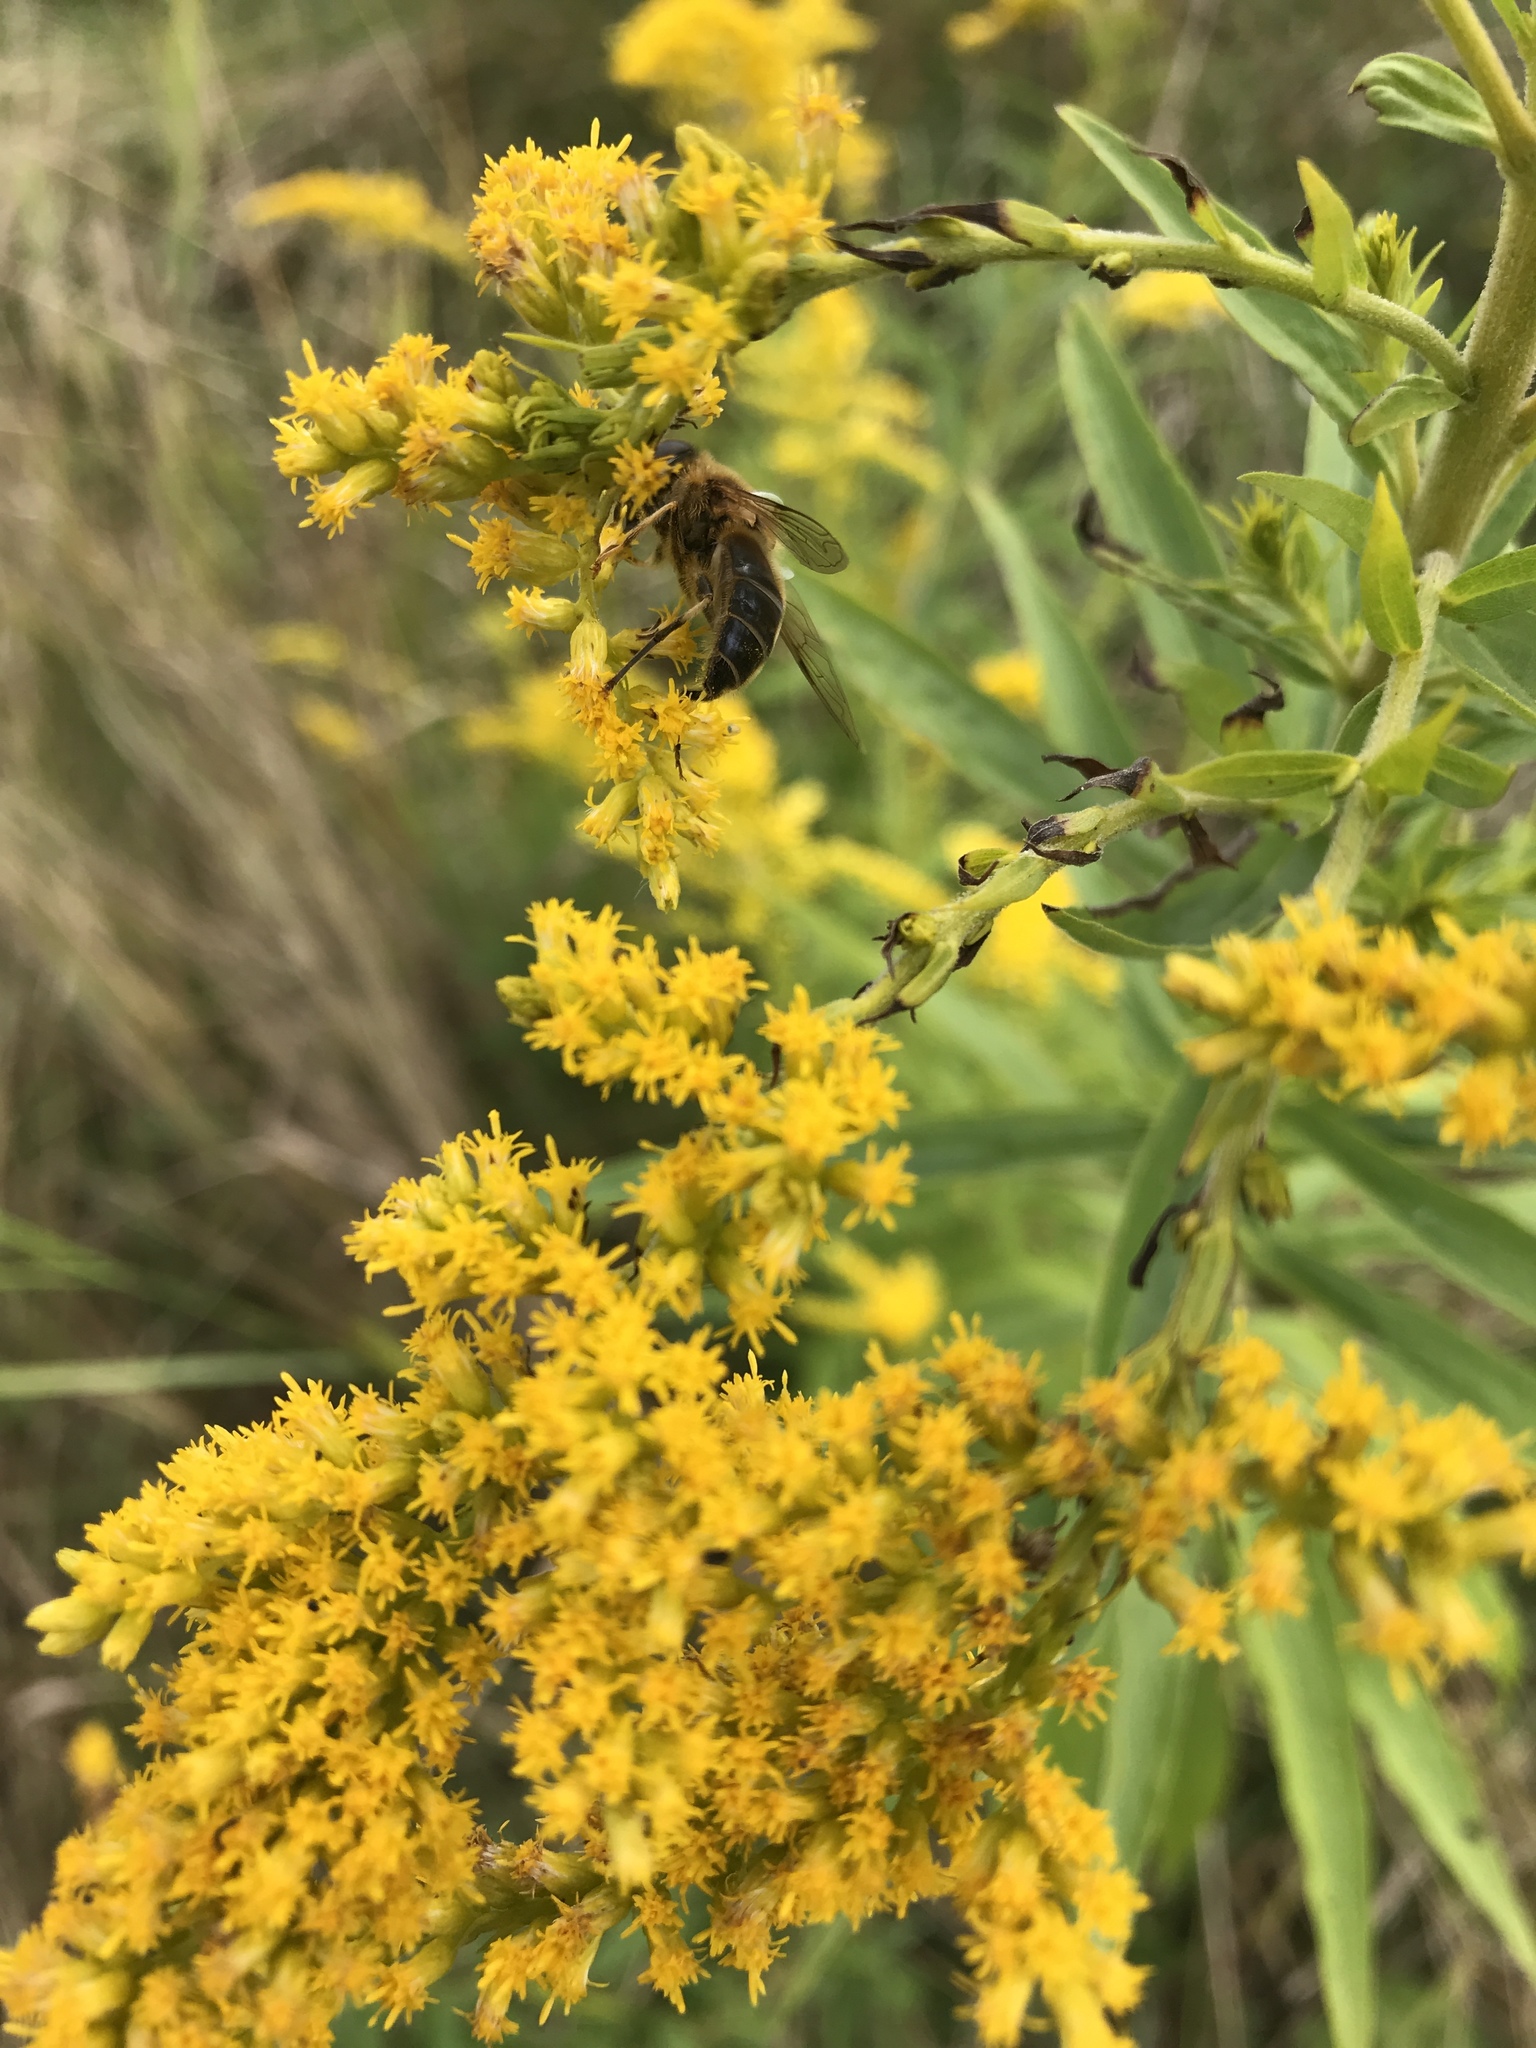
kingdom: Animalia
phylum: Arthropoda
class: Insecta
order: Diptera
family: Syrphidae
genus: Eristalis
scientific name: Eristalis pertinax
